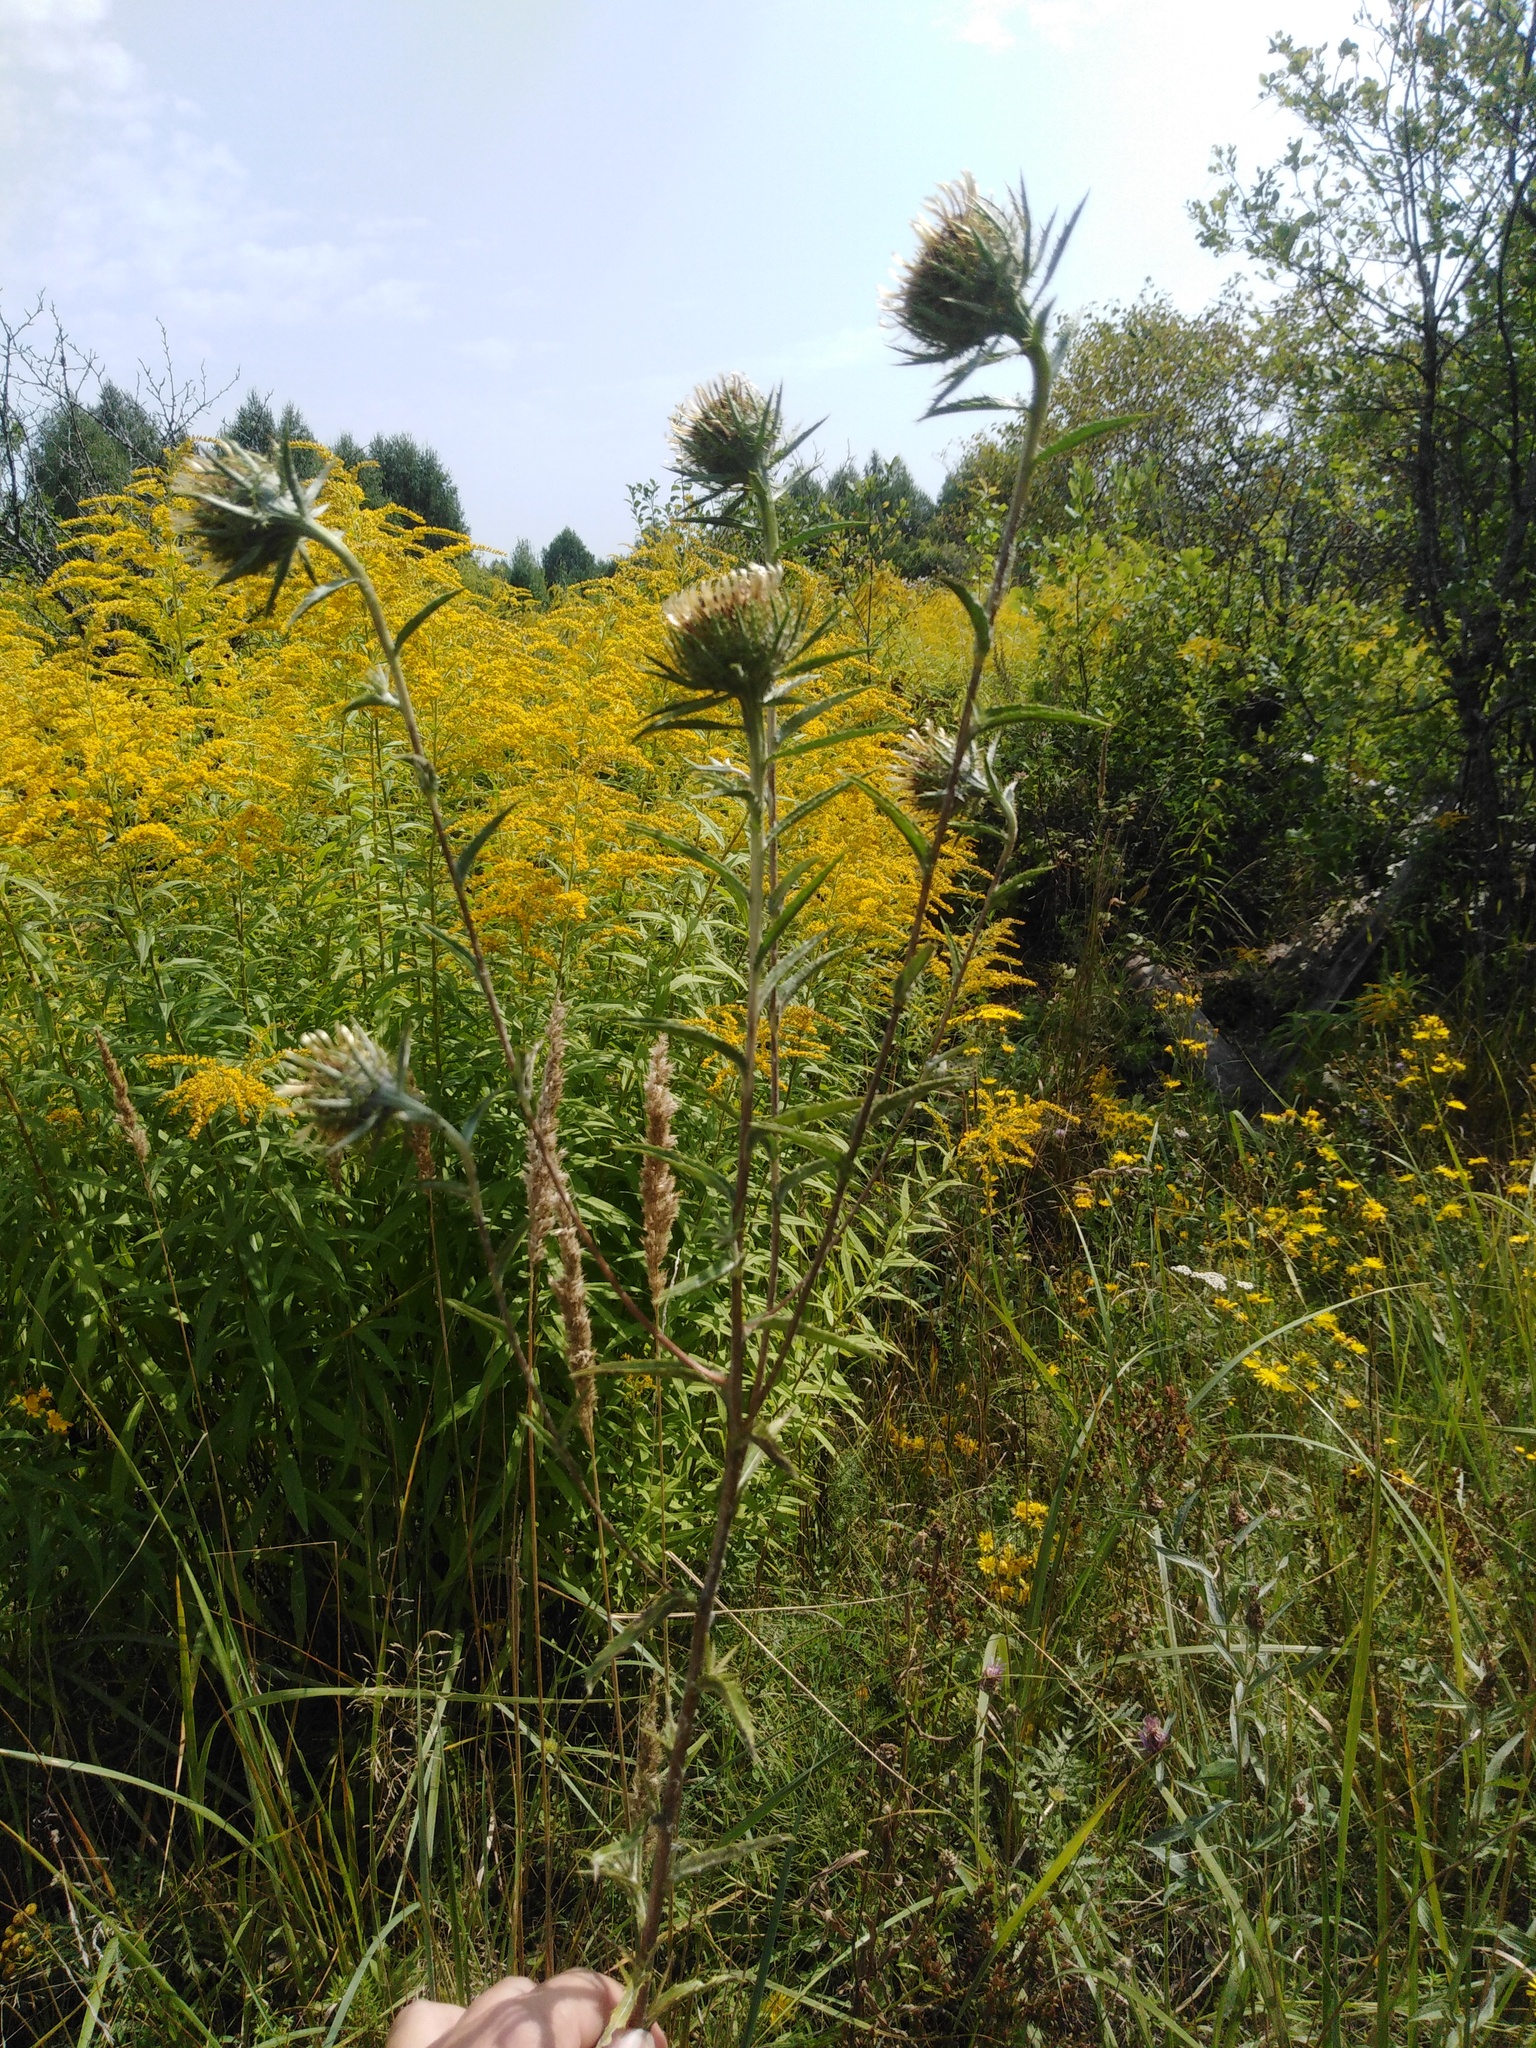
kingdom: Plantae
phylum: Tracheophyta
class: Magnoliopsida
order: Asterales
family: Asteraceae
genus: Carlina
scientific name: Carlina biebersteinii
